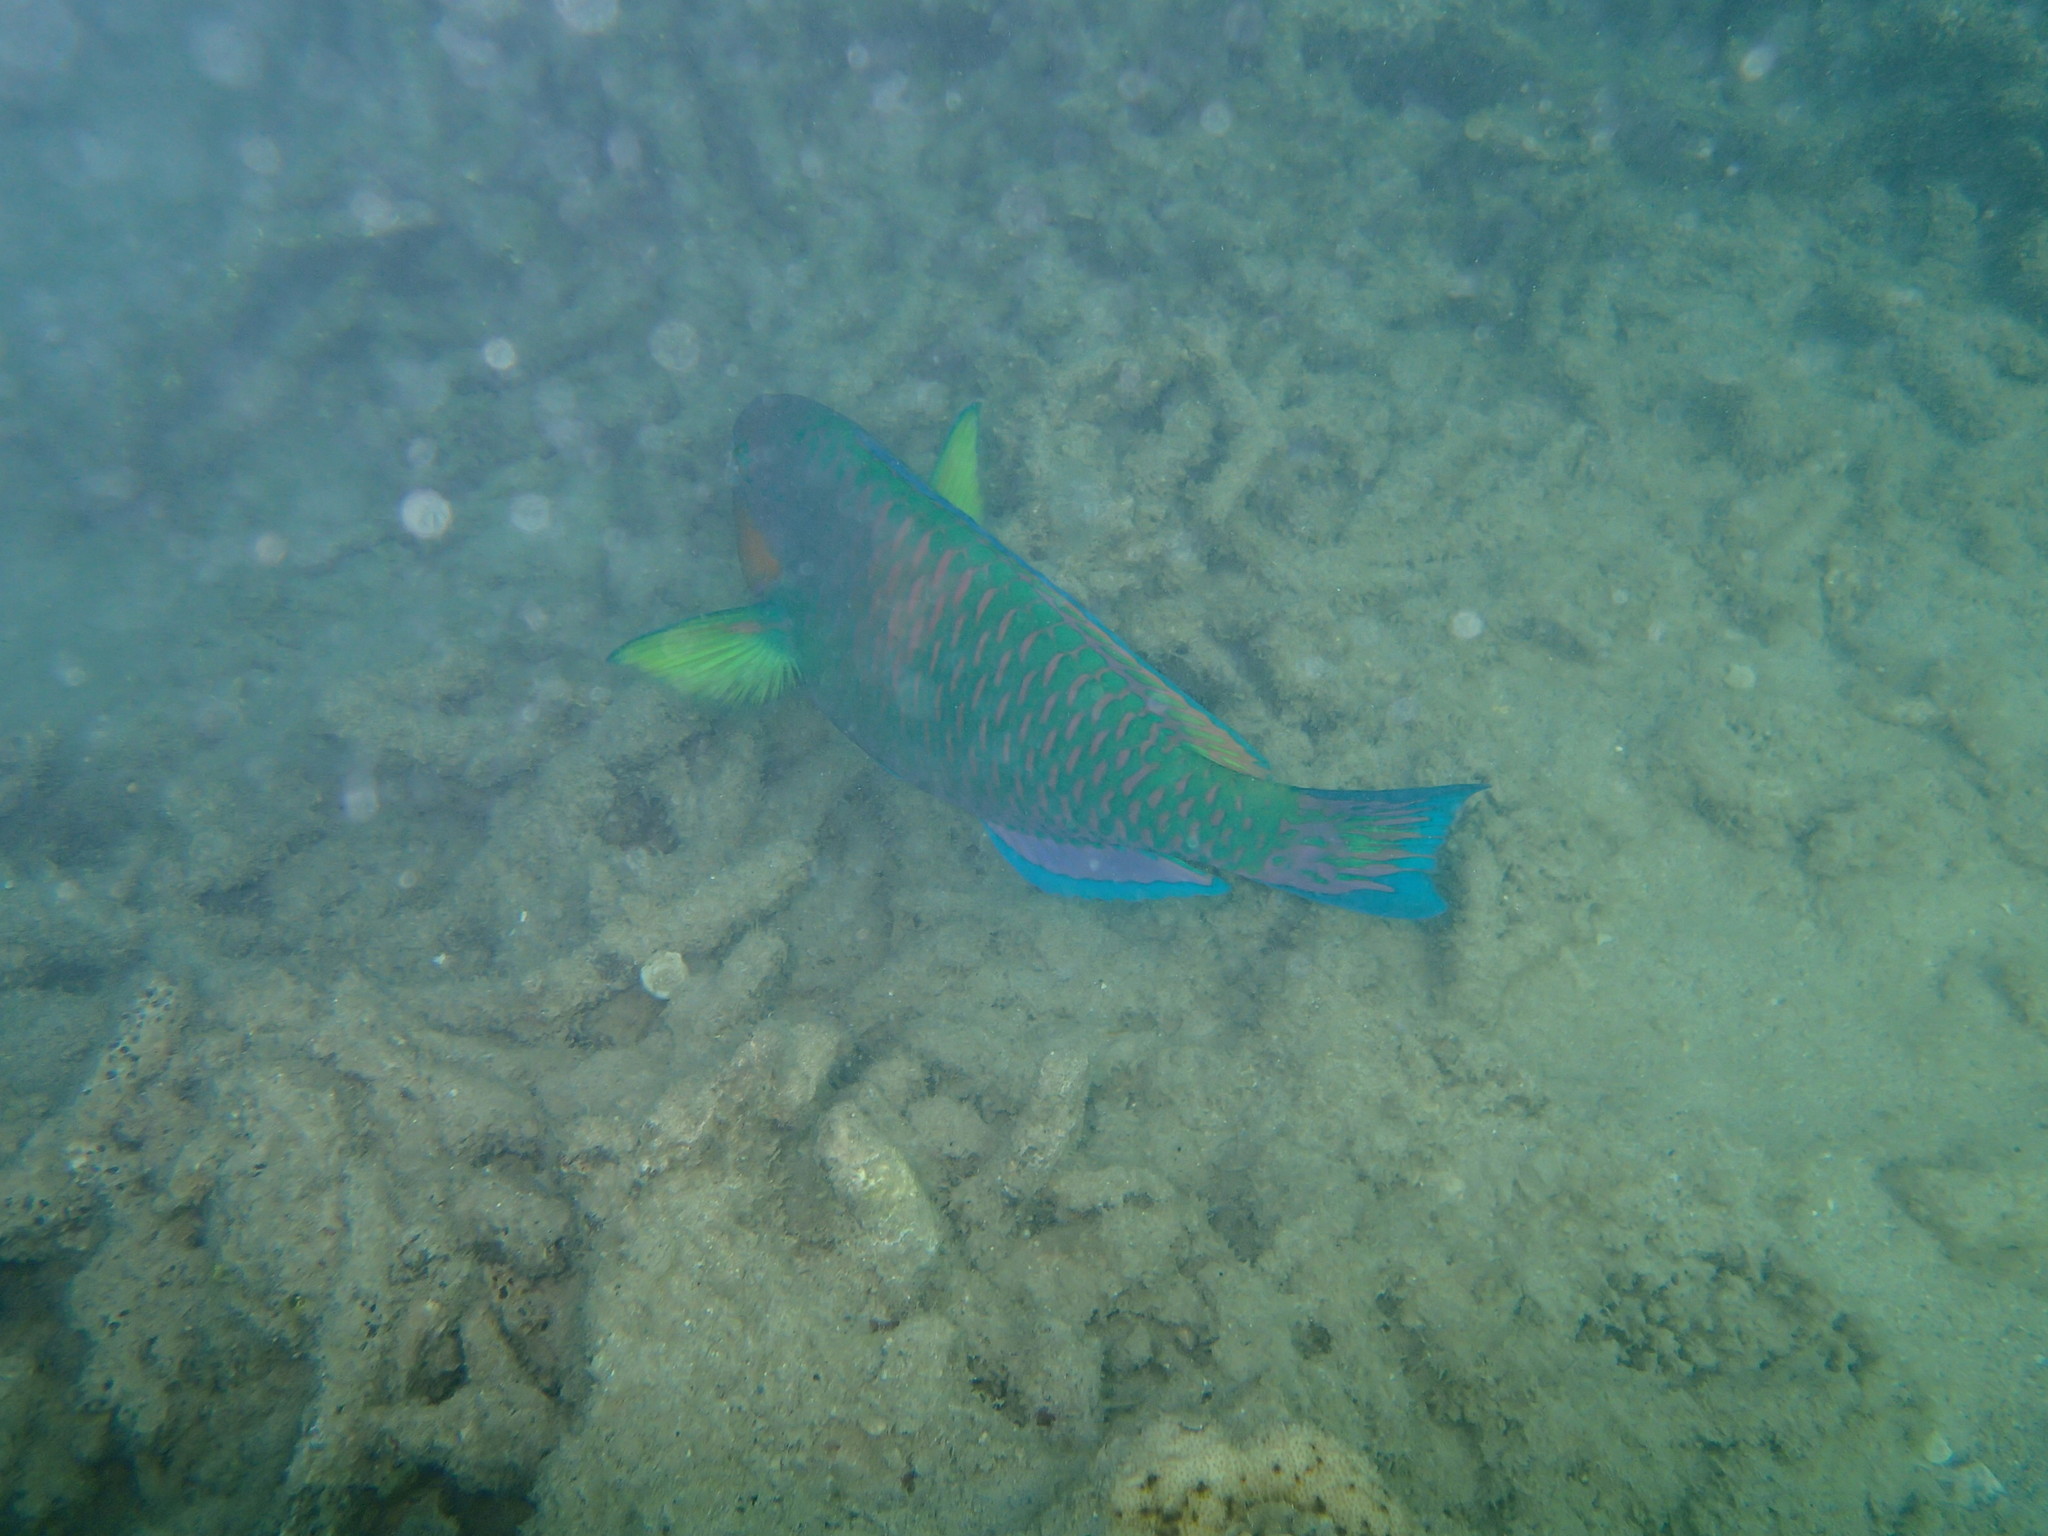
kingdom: Animalia
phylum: Chordata
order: Perciformes
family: Scaridae
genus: Scarus
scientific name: Scarus rivulatus
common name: Surf parrotfish
